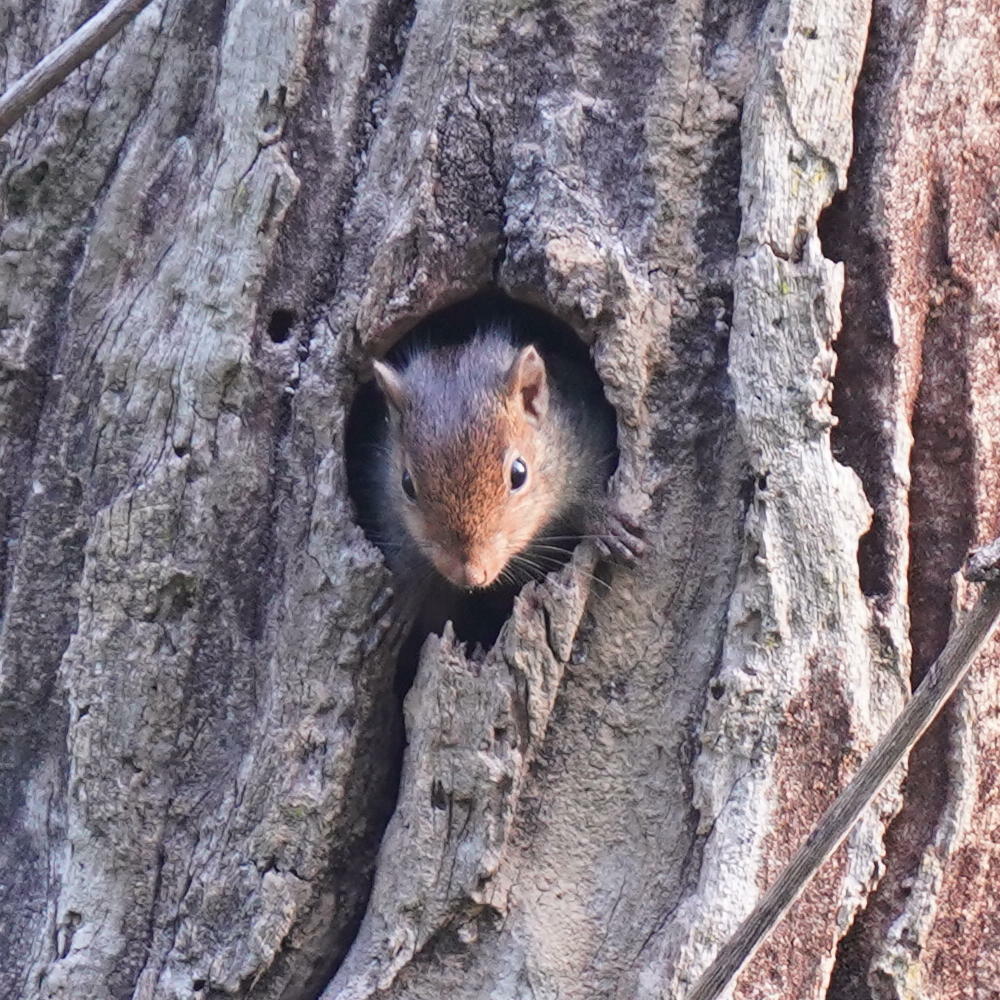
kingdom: Animalia
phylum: Chordata
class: Mammalia
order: Rodentia
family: Sciuridae
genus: Funambulus
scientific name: Funambulus tristriatus
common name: Jungle palm squirrel
